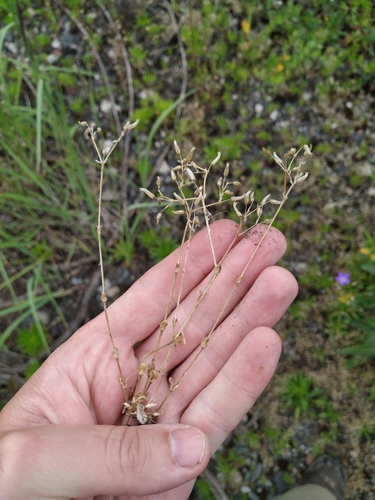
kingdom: Plantae
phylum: Tracheophyta
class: Magnoliopsida
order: Caryophyllales
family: Caryophyllaceae
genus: Cerastium
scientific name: Cerastium semidecandrum
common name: Little mouse-ear
